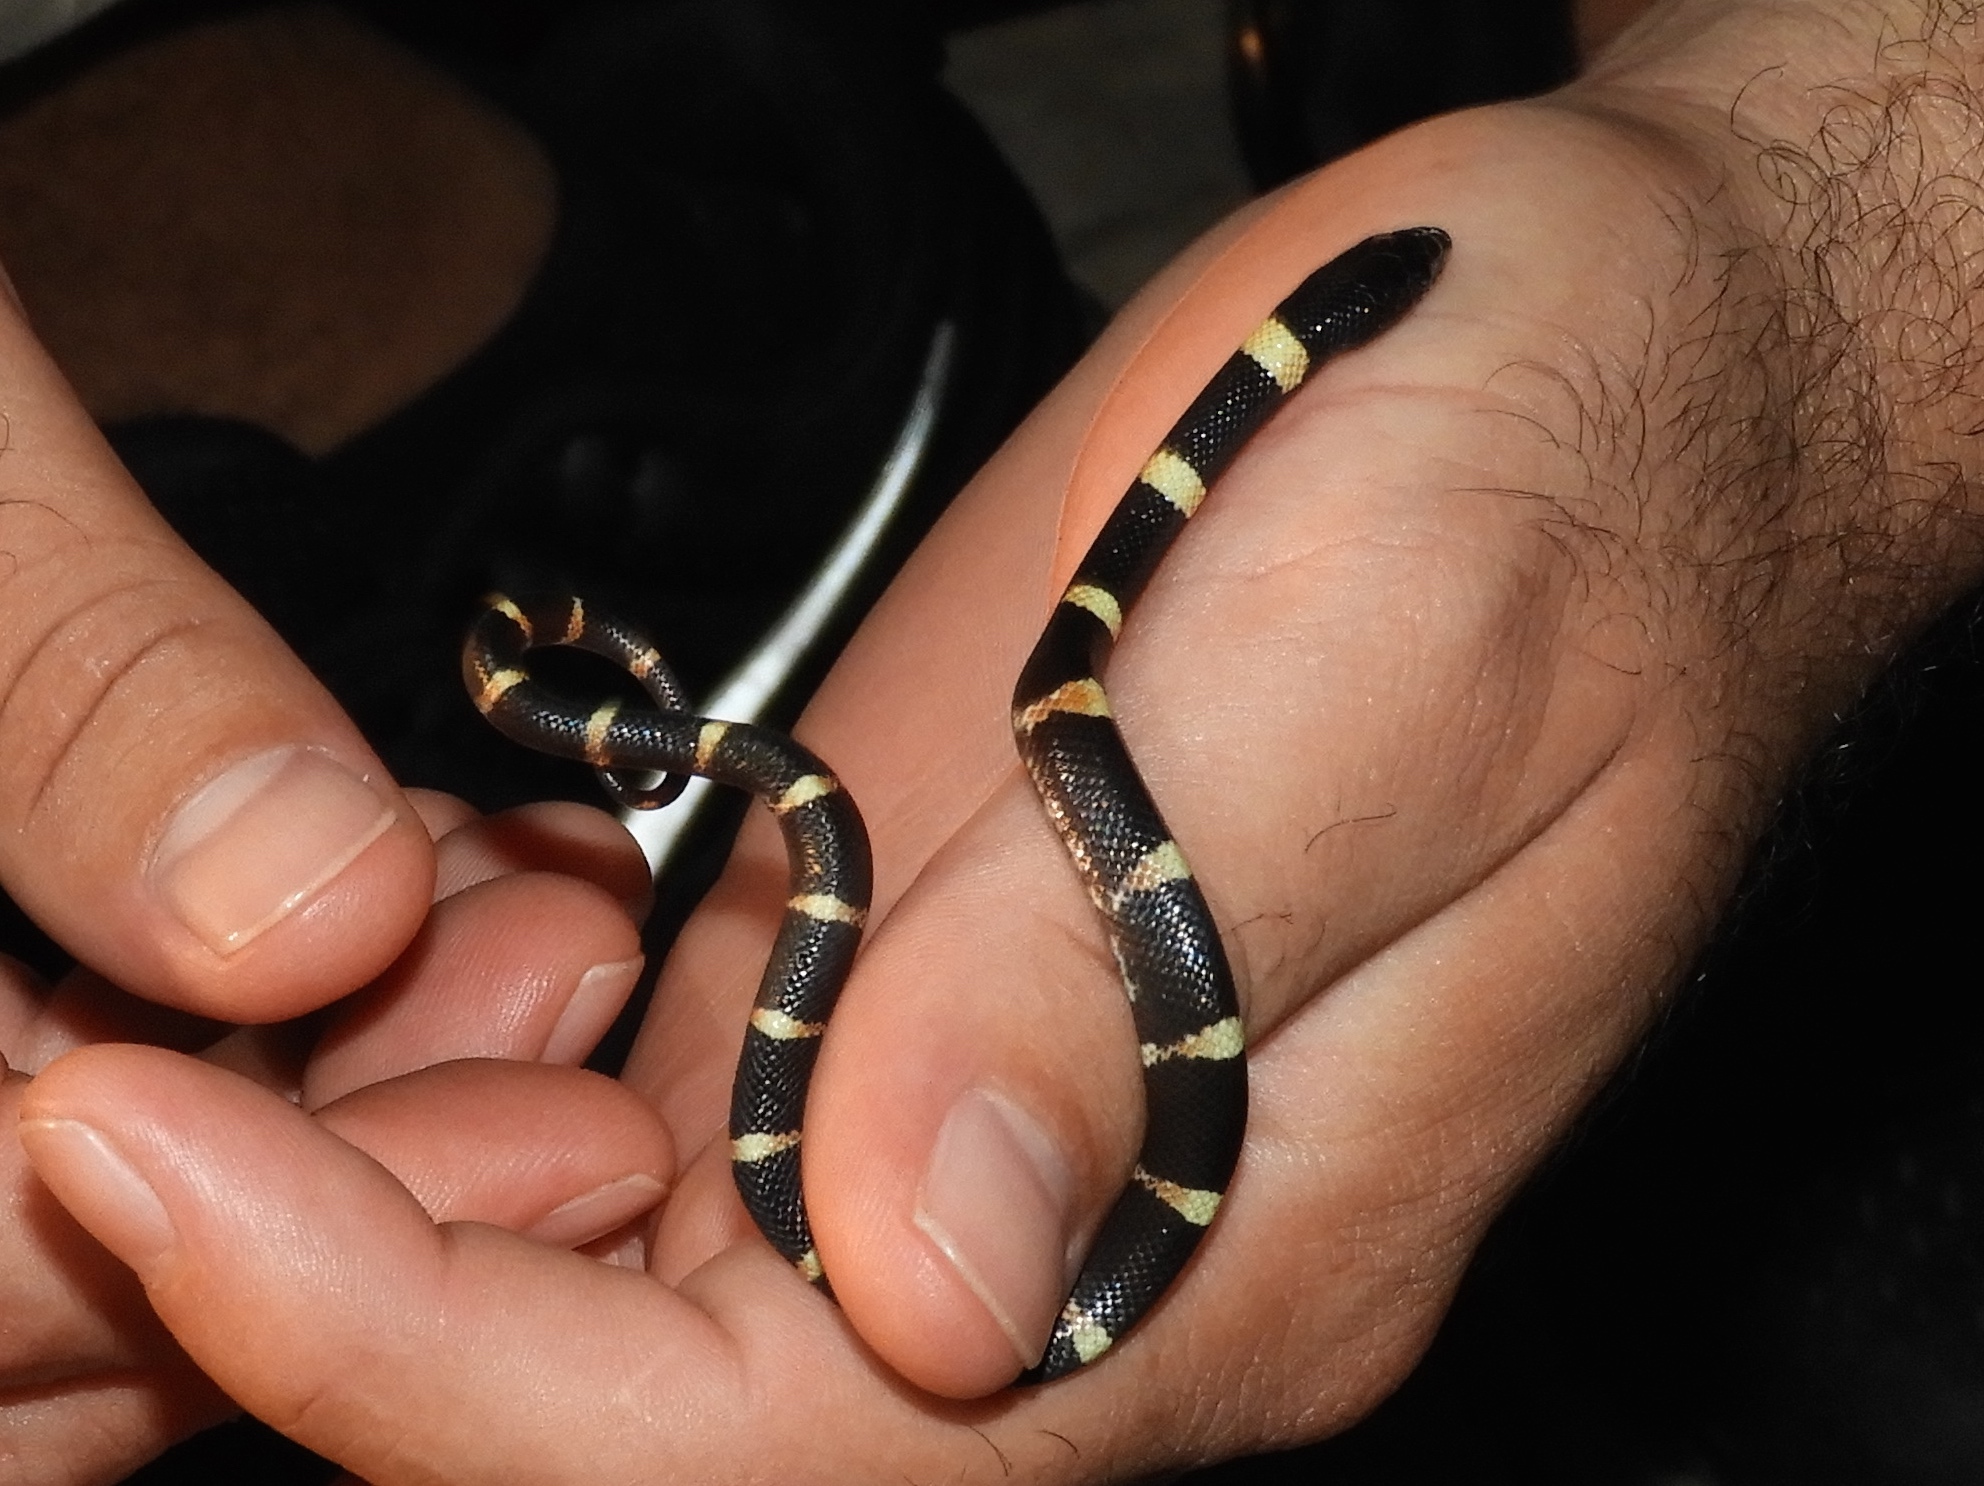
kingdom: Animalia
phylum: Chordata
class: Squamata
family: Colubridae
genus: Rhinocheilus
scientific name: Rhinocheilus antonii
